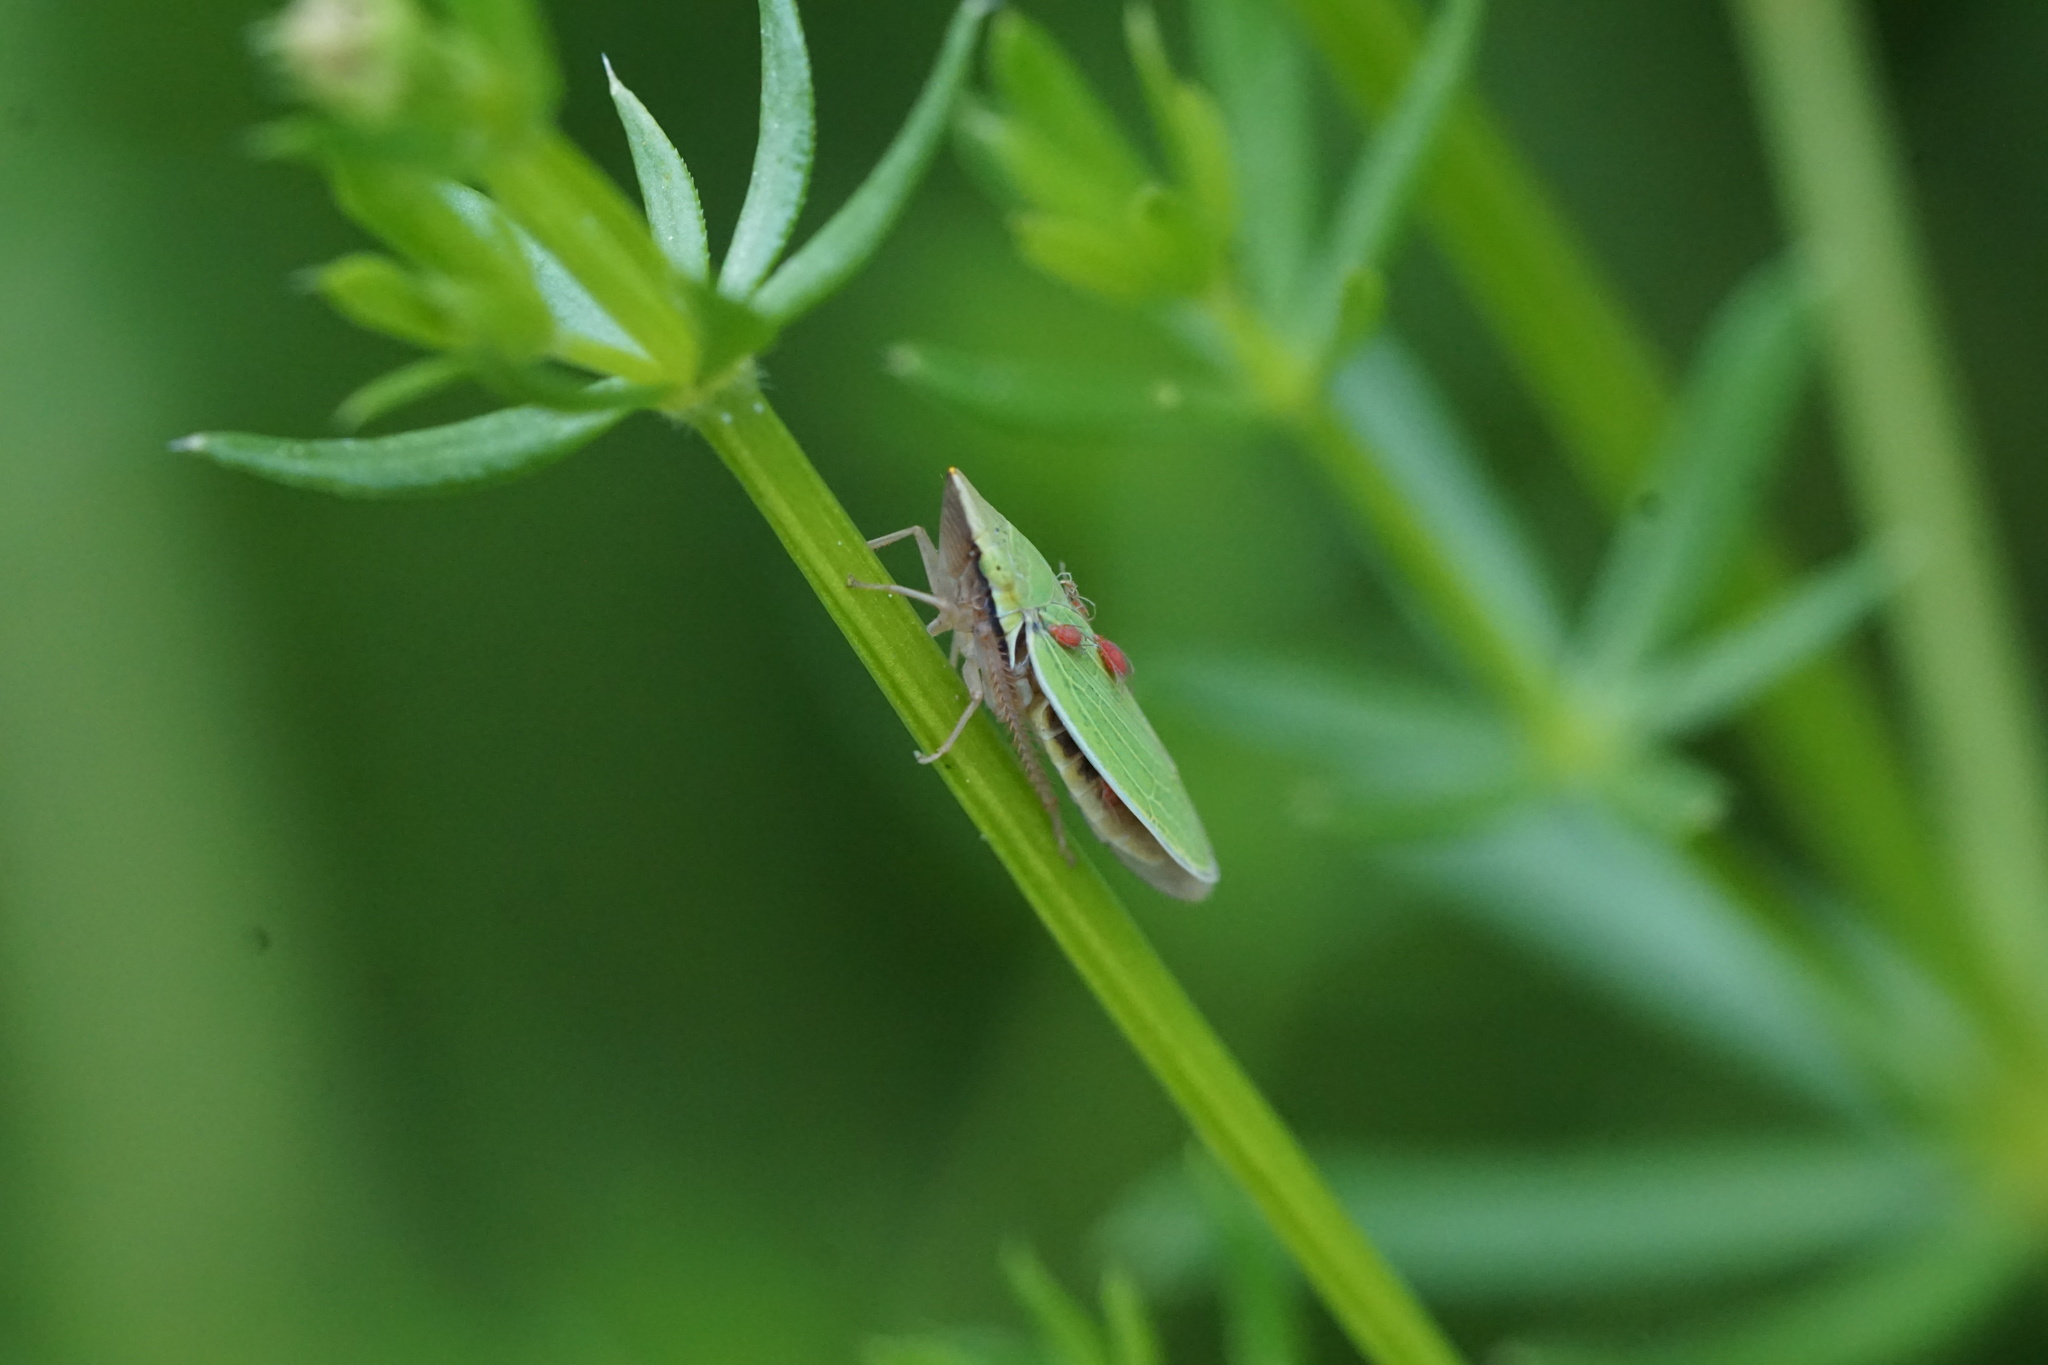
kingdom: Animalia
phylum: Arthropoda
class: Insecta
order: Hemiptera
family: Cicadellidae
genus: Draeculacephala
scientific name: Draeculacephala constricta
